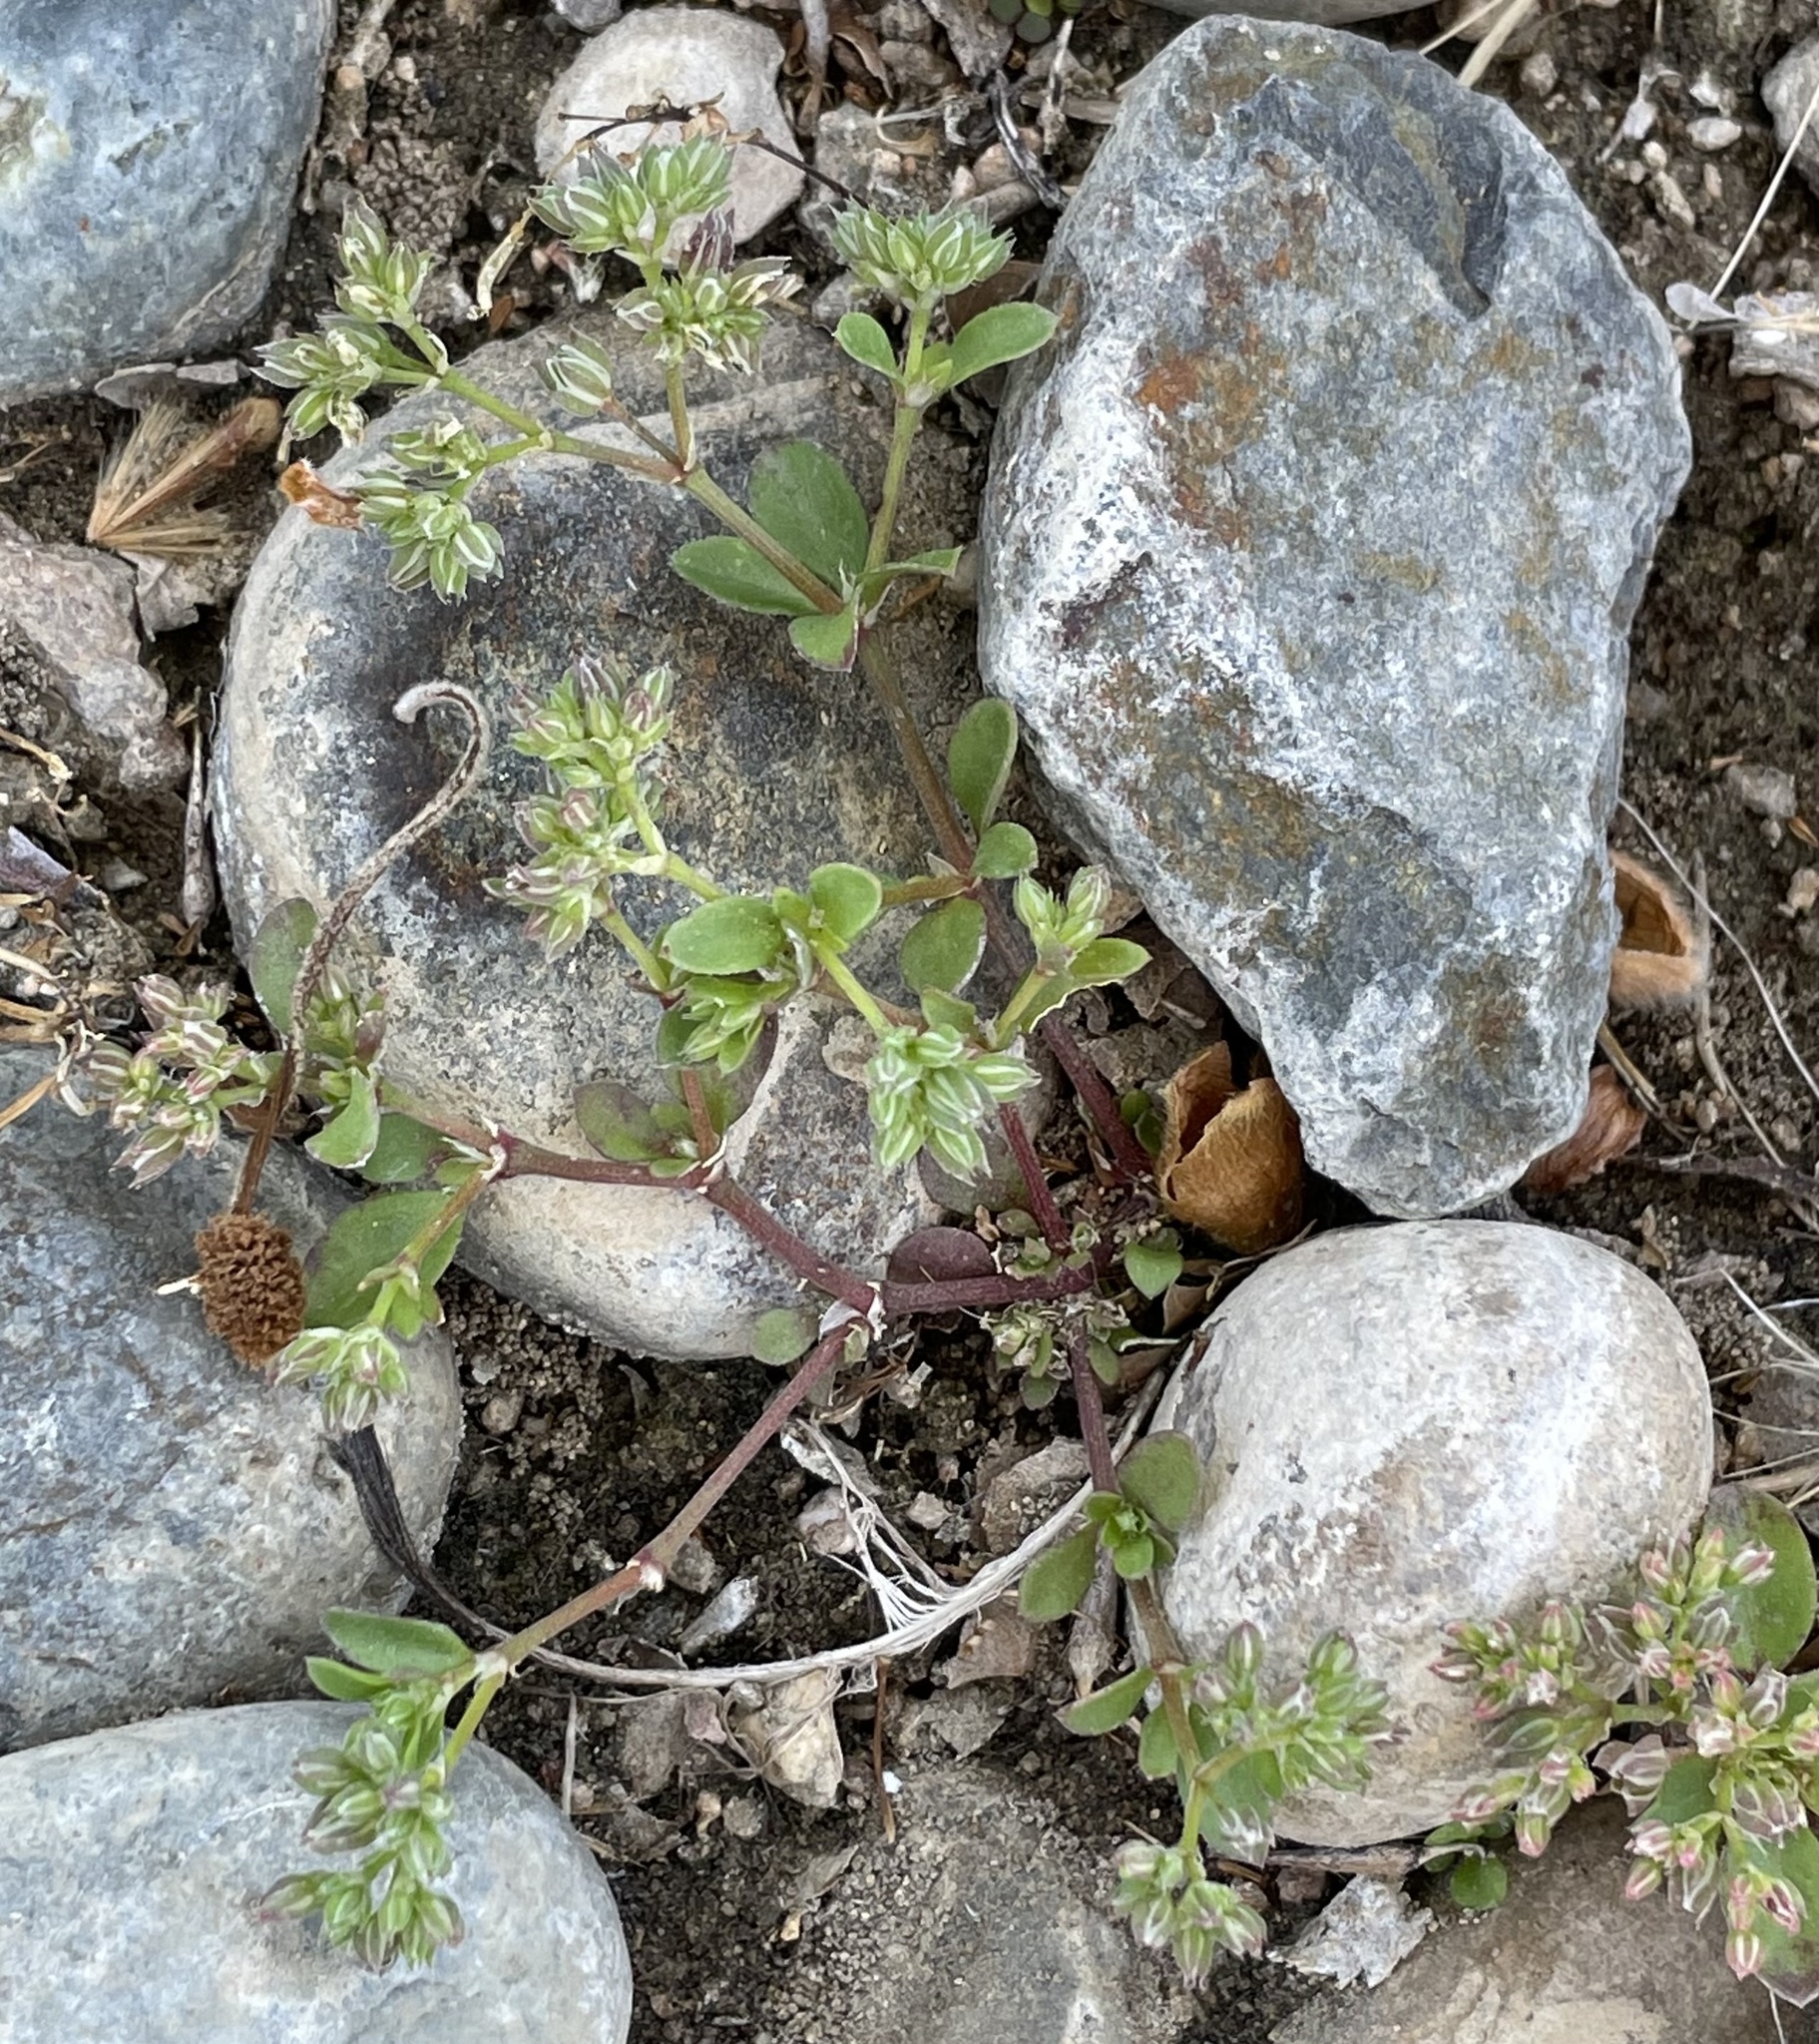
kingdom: Plantae
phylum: Tracheophyta
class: Magnoliopsida
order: Caryophyllales
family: Caryophyllaceae
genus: Polycarpon
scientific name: Polycarpon tetraphyllum
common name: Four-leaved all-seed
